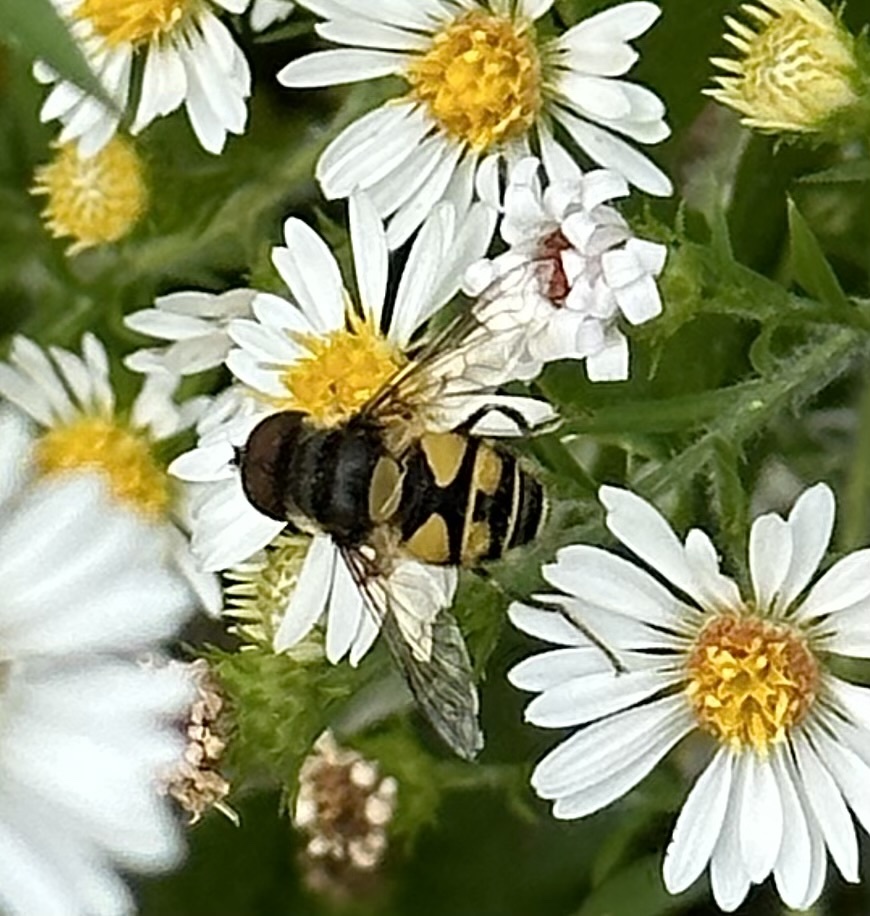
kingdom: Animalia
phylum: Arthropoda
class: Insecta
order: Diptera
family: Syrphidae
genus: Eristalis
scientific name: Eristalis transversa
